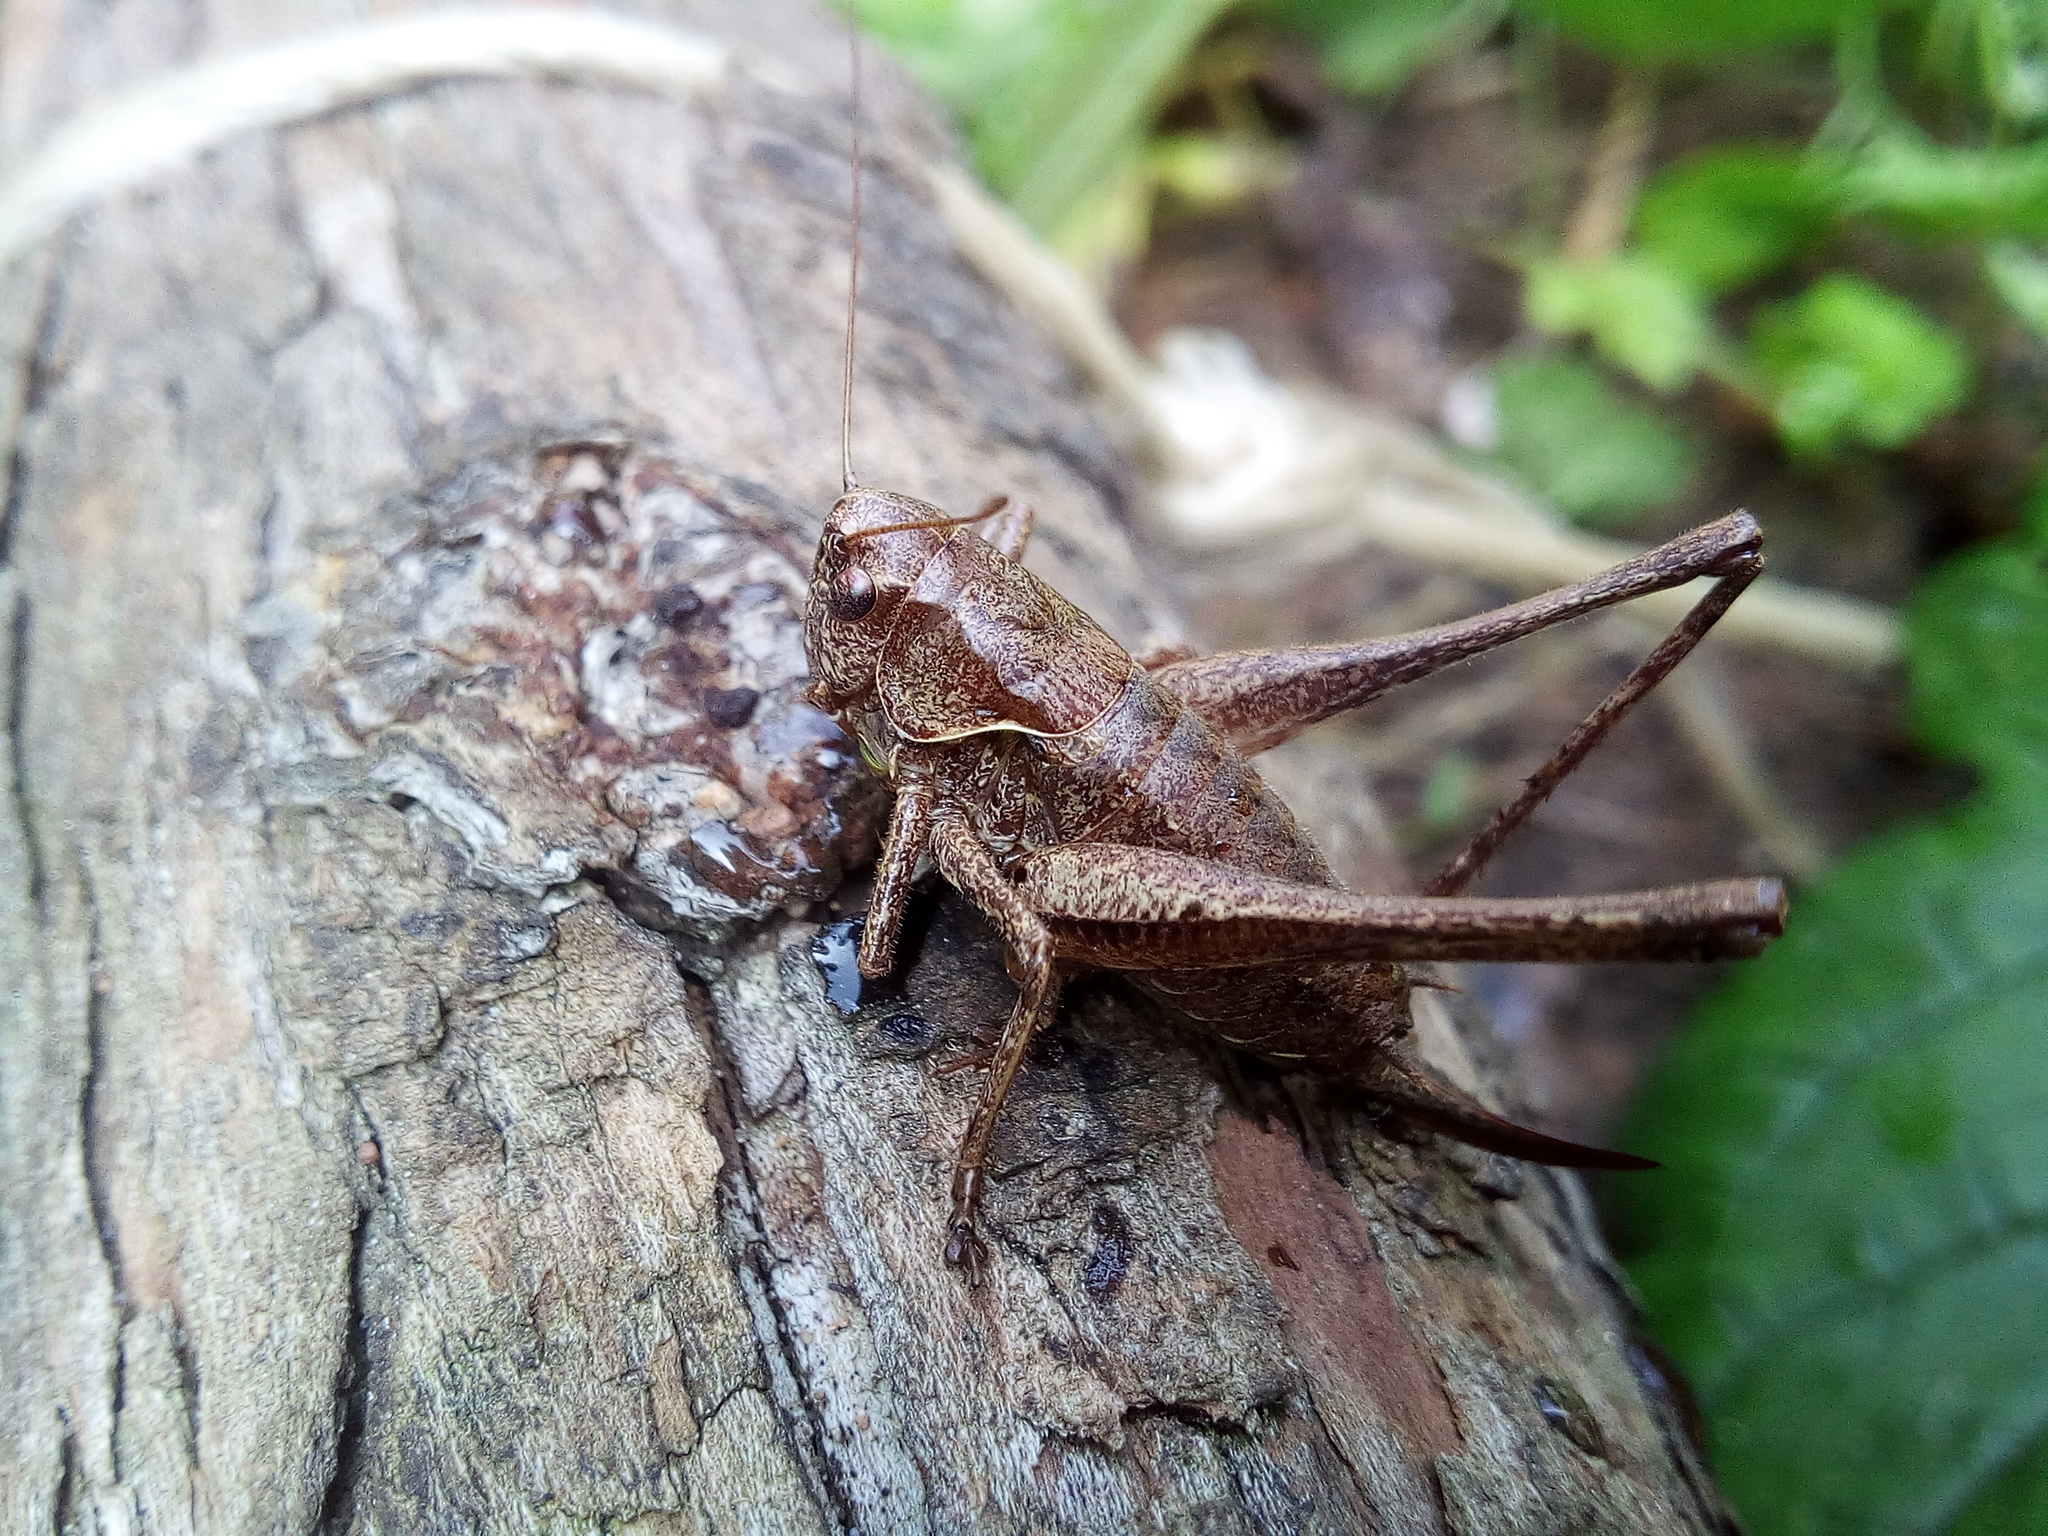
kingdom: Animalia
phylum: Arthropoda
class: Insecta
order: Orthoptera
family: Tettigoniidae
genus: Pholidoptera
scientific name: Pholidoptera griseoaptera
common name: Dark bush-cricket
